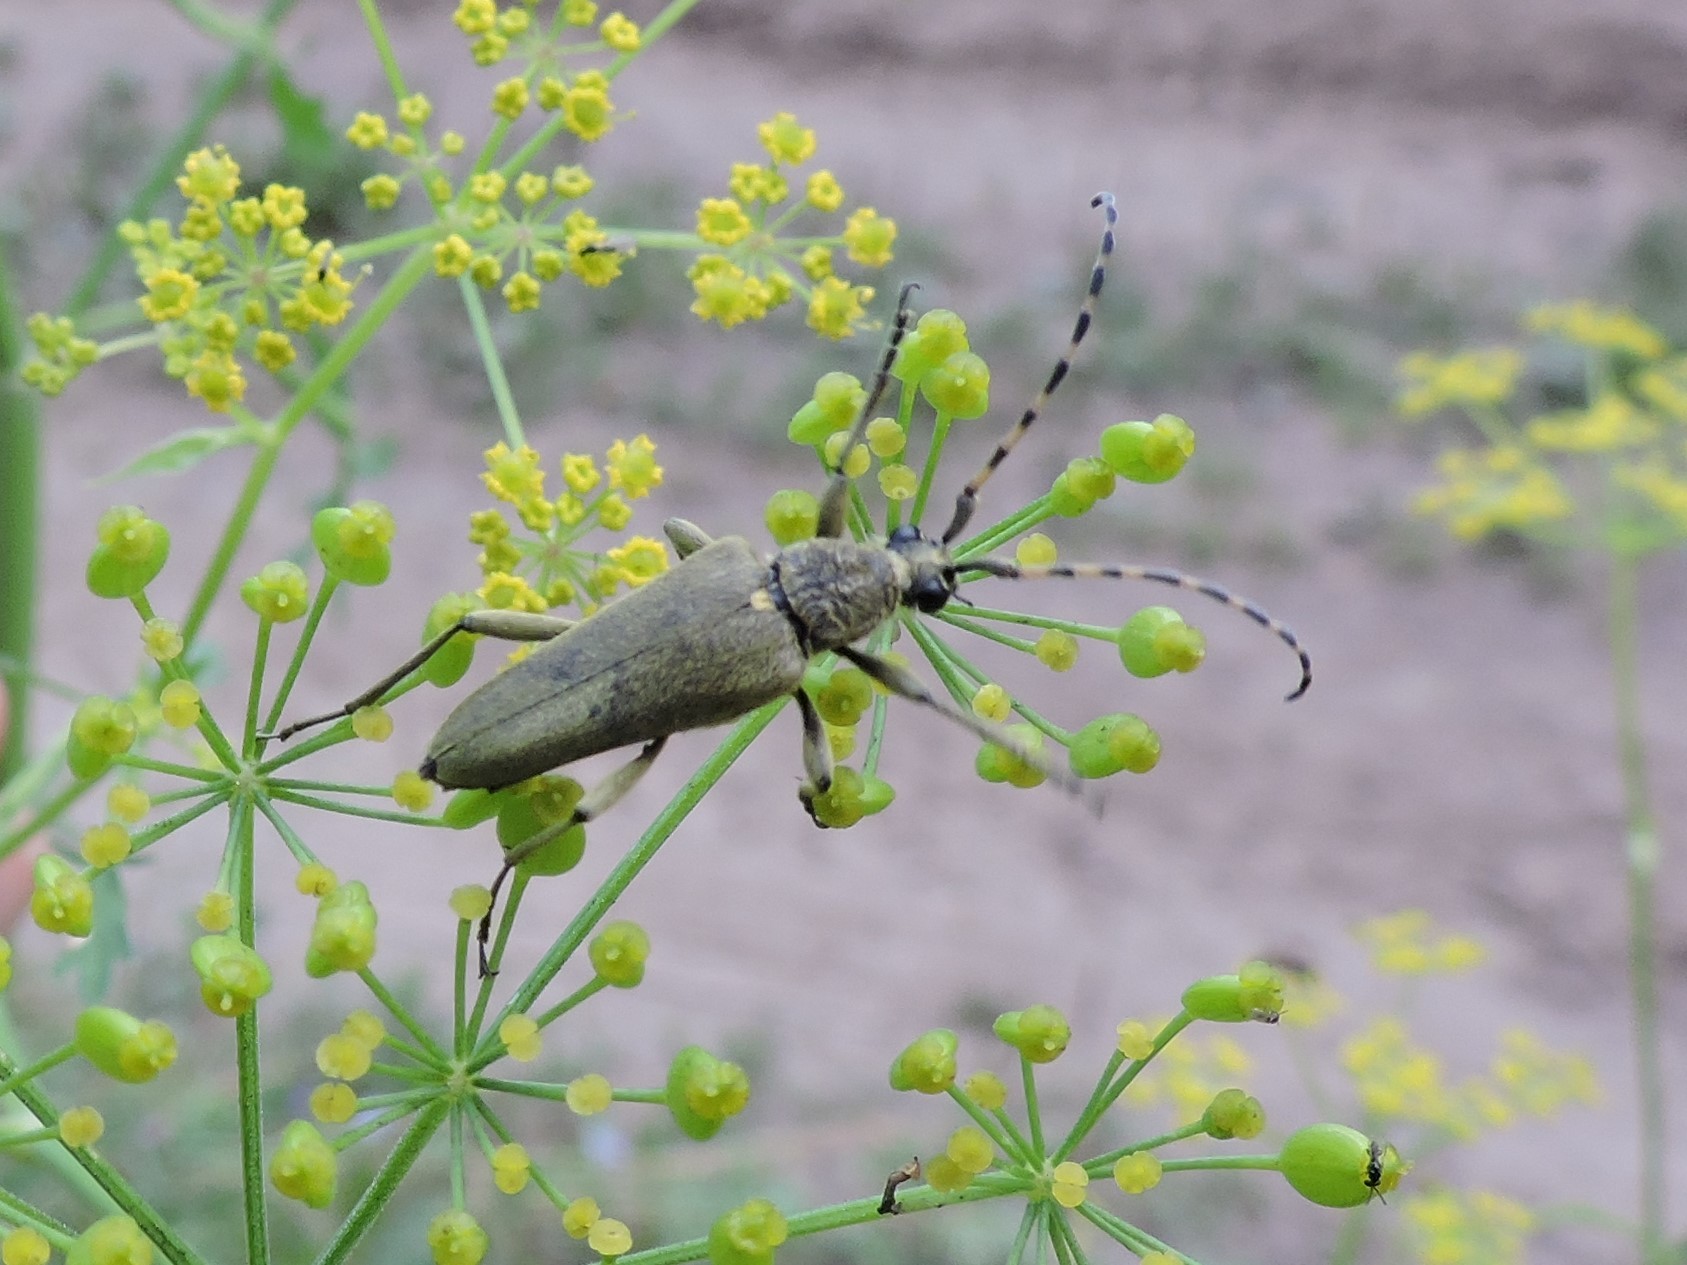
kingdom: Animalia
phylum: Arthropoda
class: Insecta
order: Coleoptera
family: Cerambycidae
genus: Lepturobosca
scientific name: Lepturobosca virens
